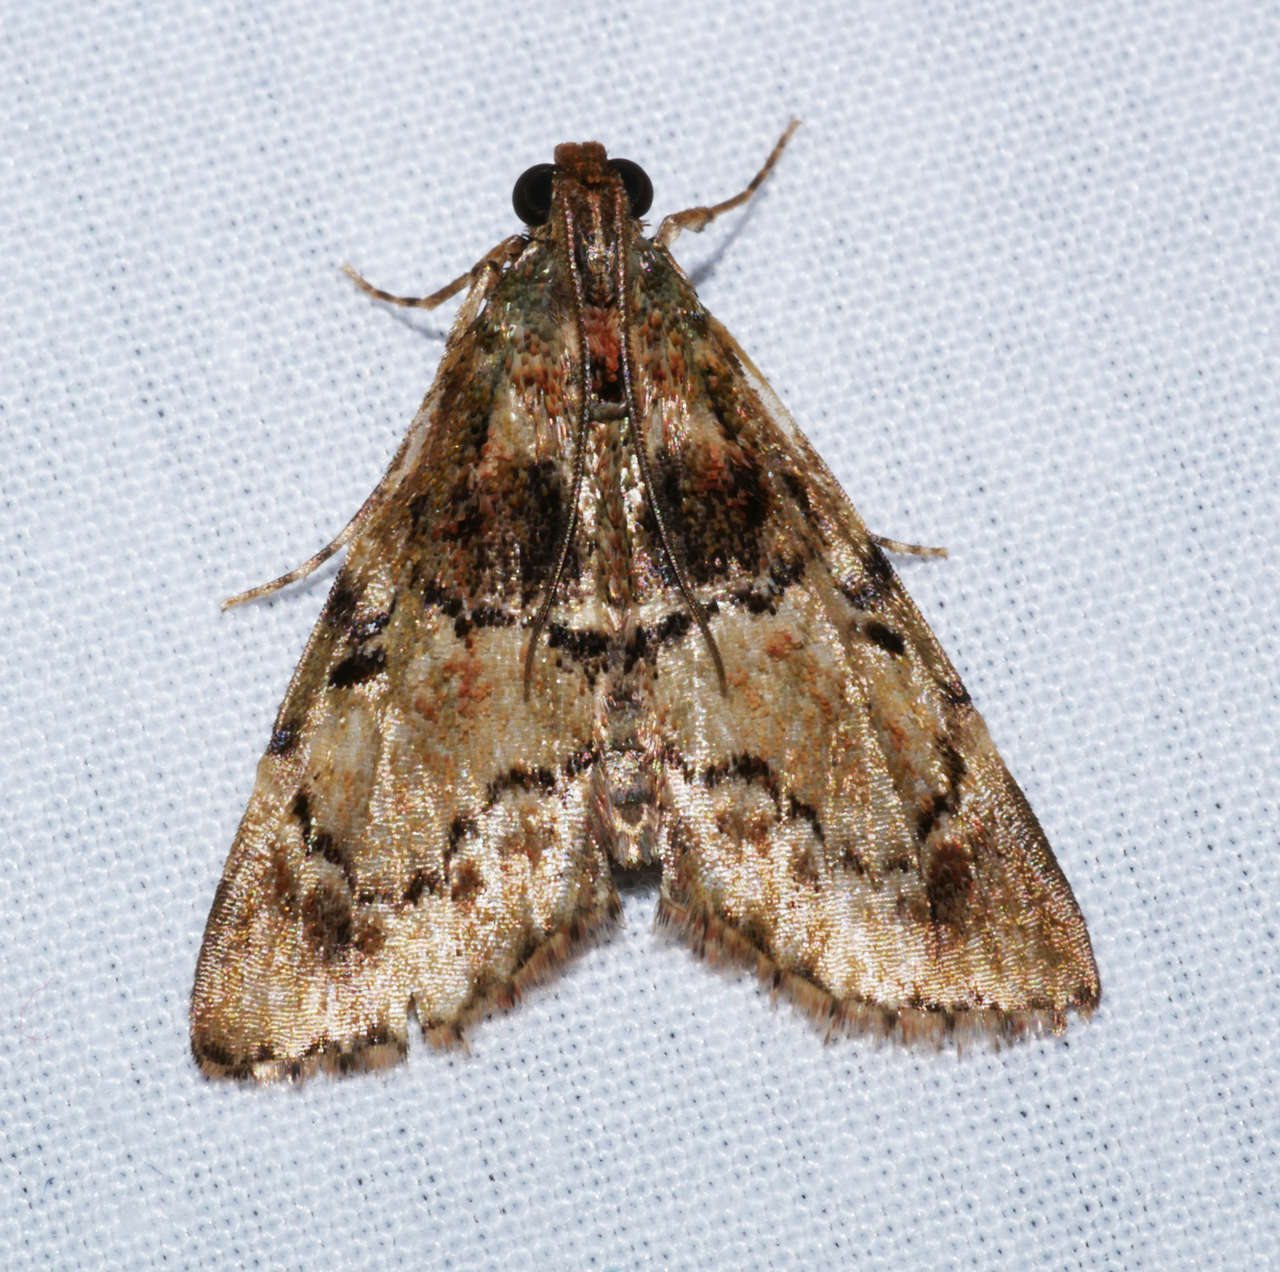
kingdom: Animalia
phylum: Arthropoda
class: Insecta
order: Lepidoptera
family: Pyralidae
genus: Orthaga
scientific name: Orthaga thyrisalis
